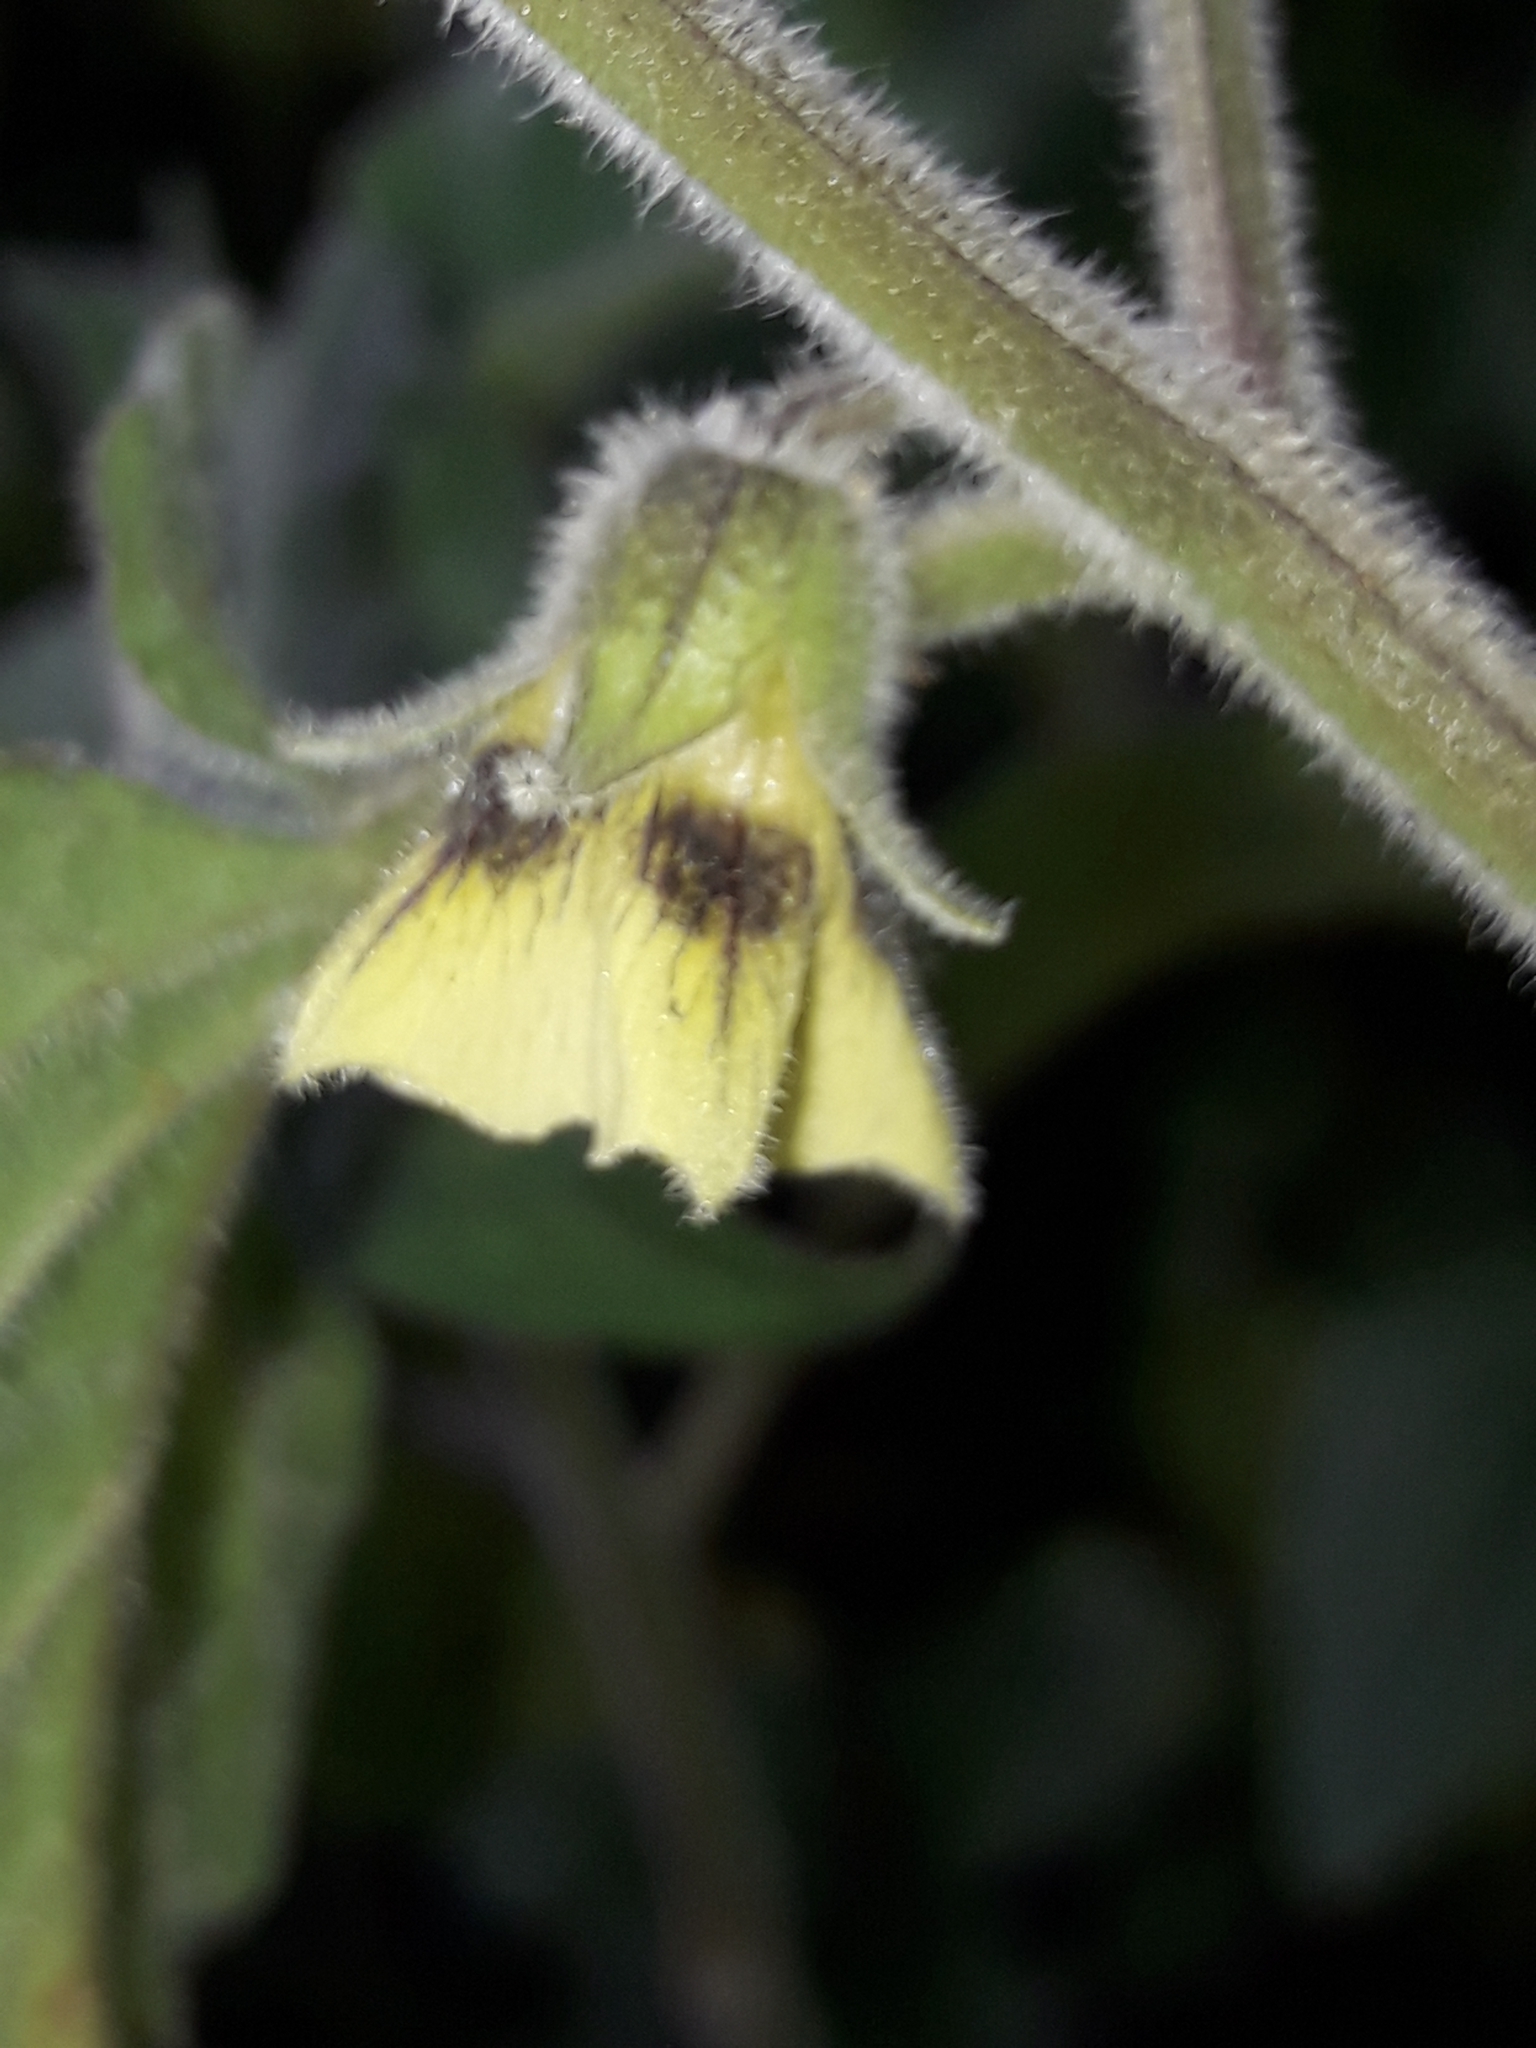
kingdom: Plantae
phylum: Tracheophyta
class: Magnoliopsida
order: Solanales
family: Solanaceae
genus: Physalis
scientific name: Physalis peruviana
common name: Cape-gooseberry
